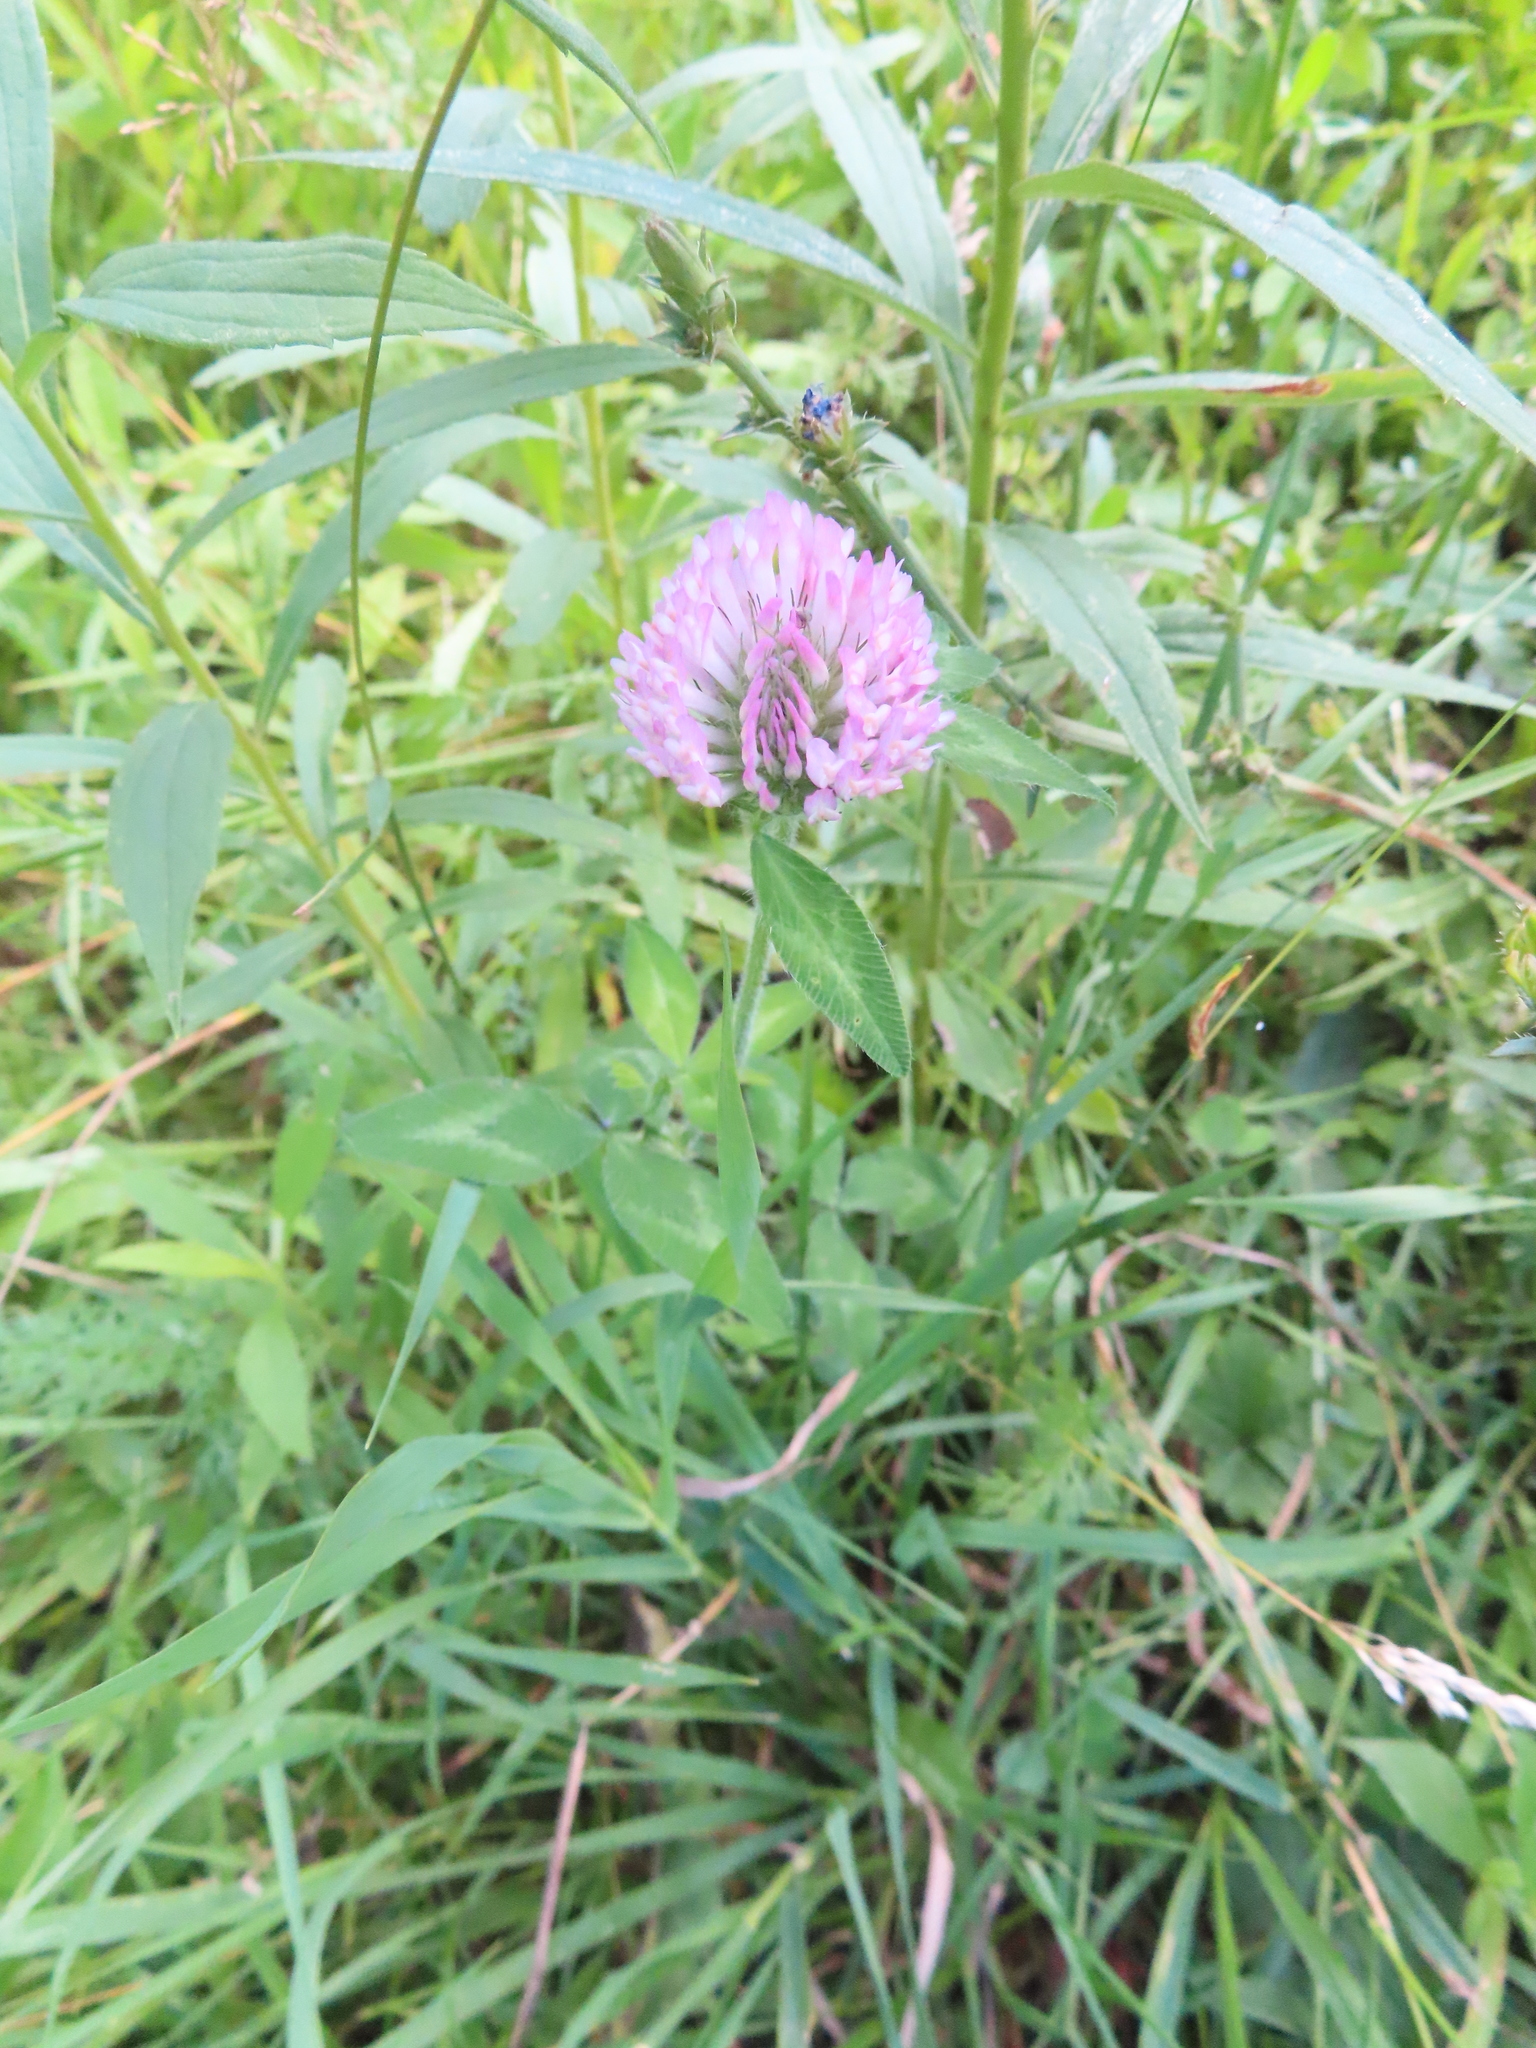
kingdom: Plantae
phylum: Tracheophyta
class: Magnoliopsida
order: Fabales
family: Fabaceae
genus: Trifolium
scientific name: Trifolium pratense
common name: Red clover
